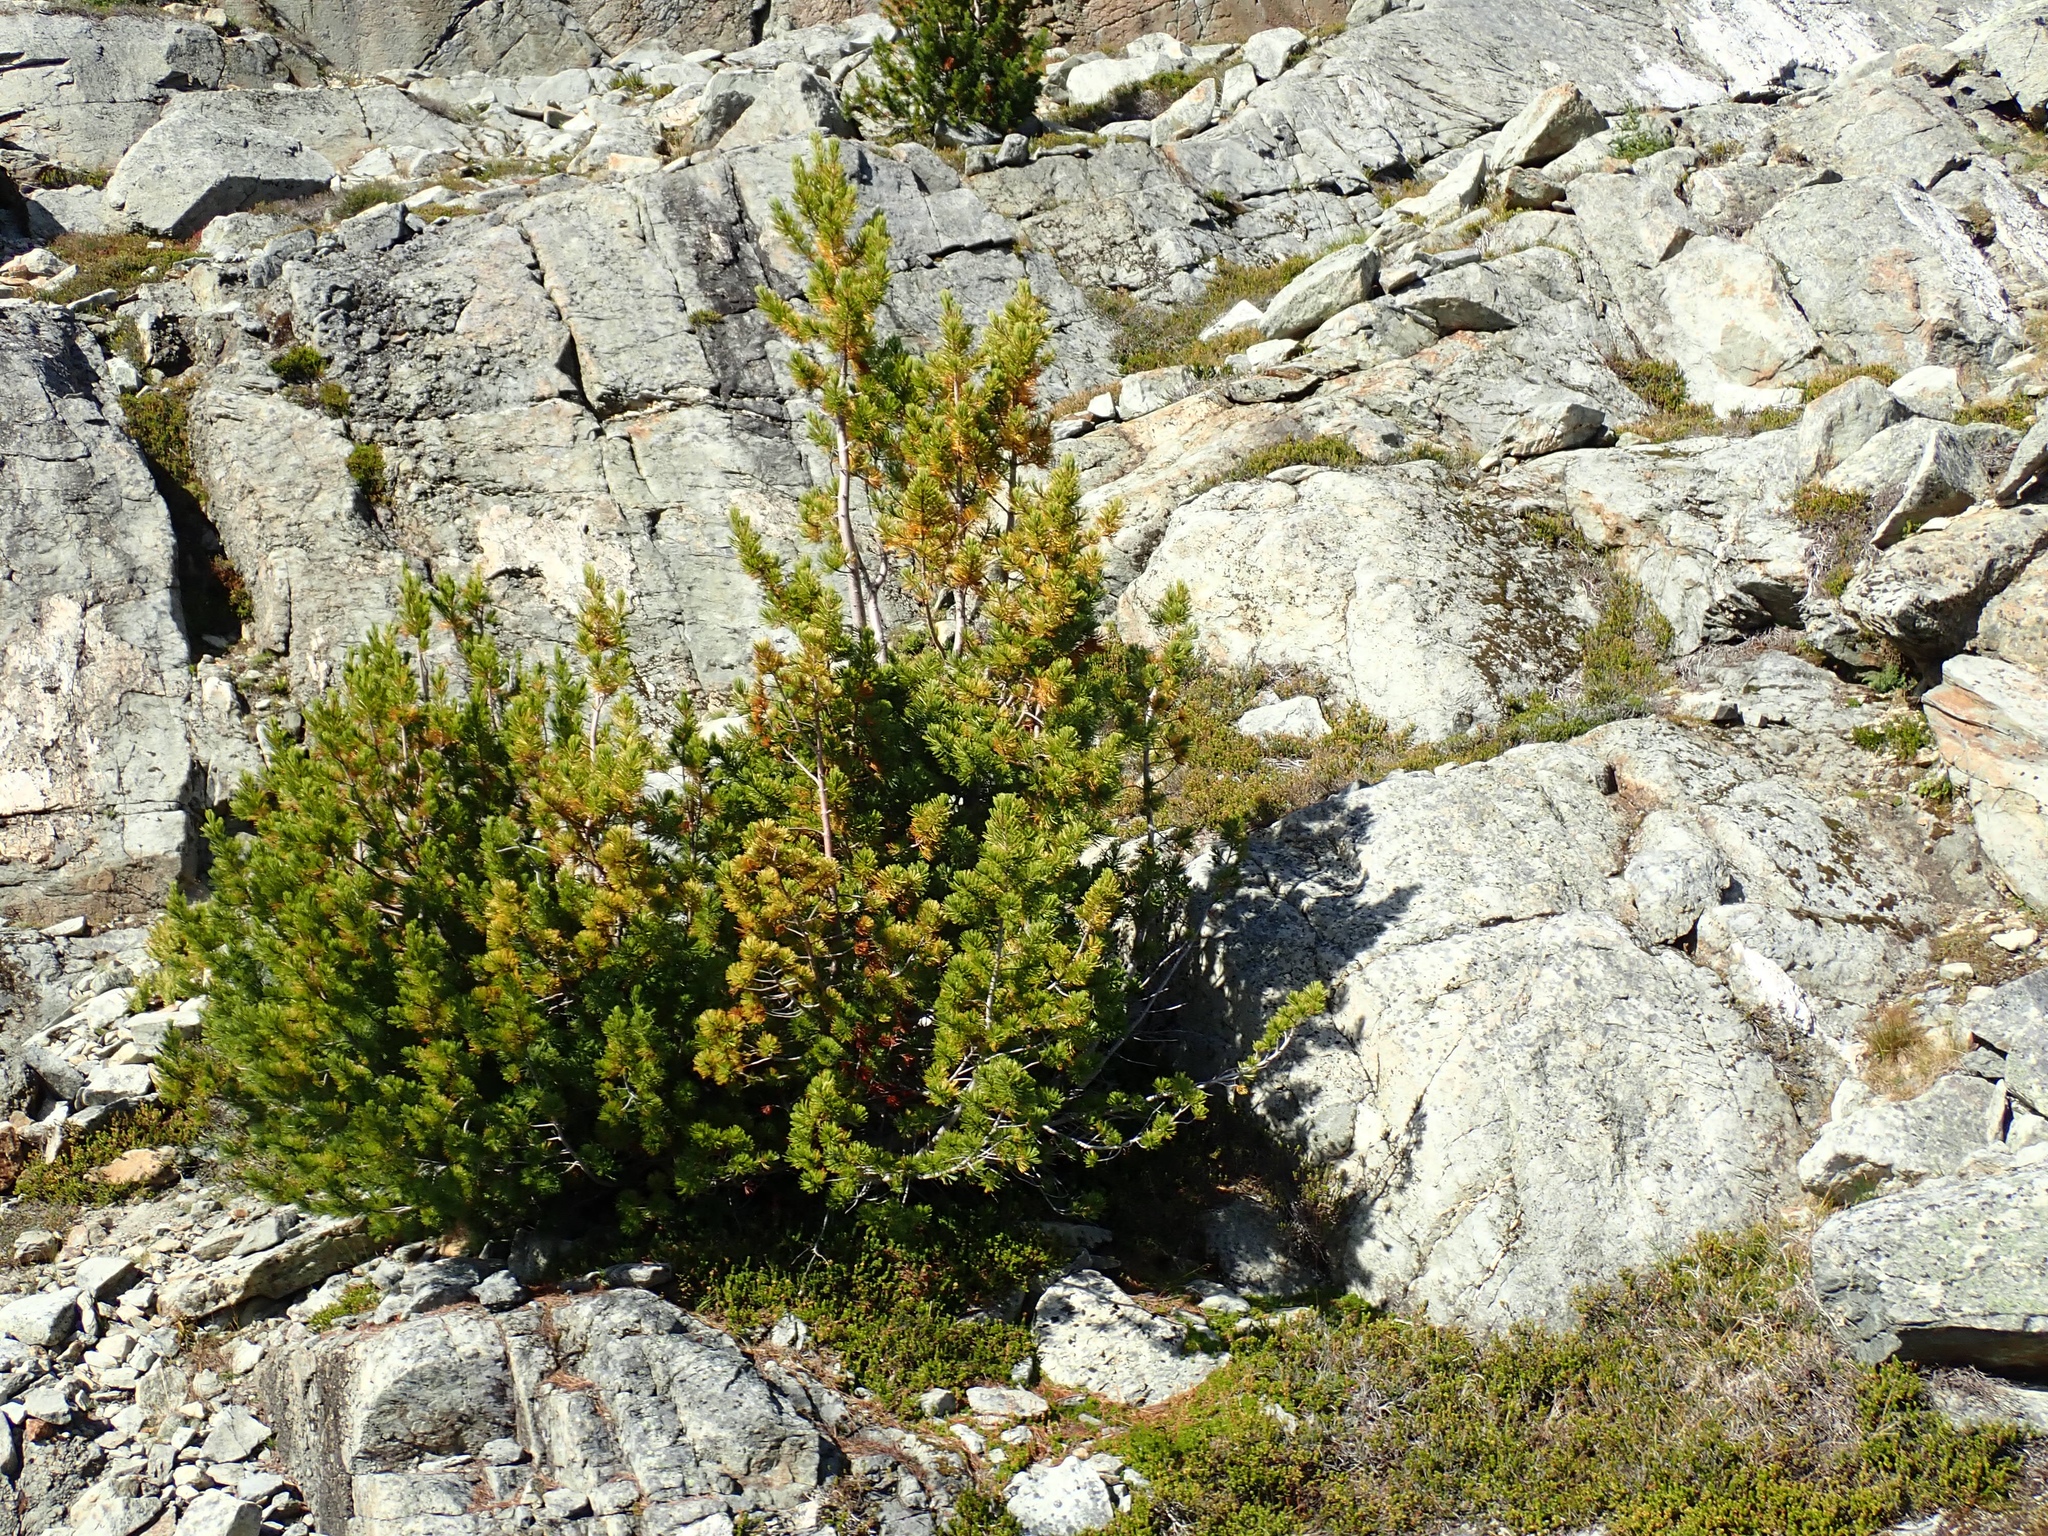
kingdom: Plantae
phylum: Tracheophyta
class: Pinopsida
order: Pinales
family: Pinaceae
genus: Pinus
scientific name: Pinus albicaulis
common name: Whitebark pine
